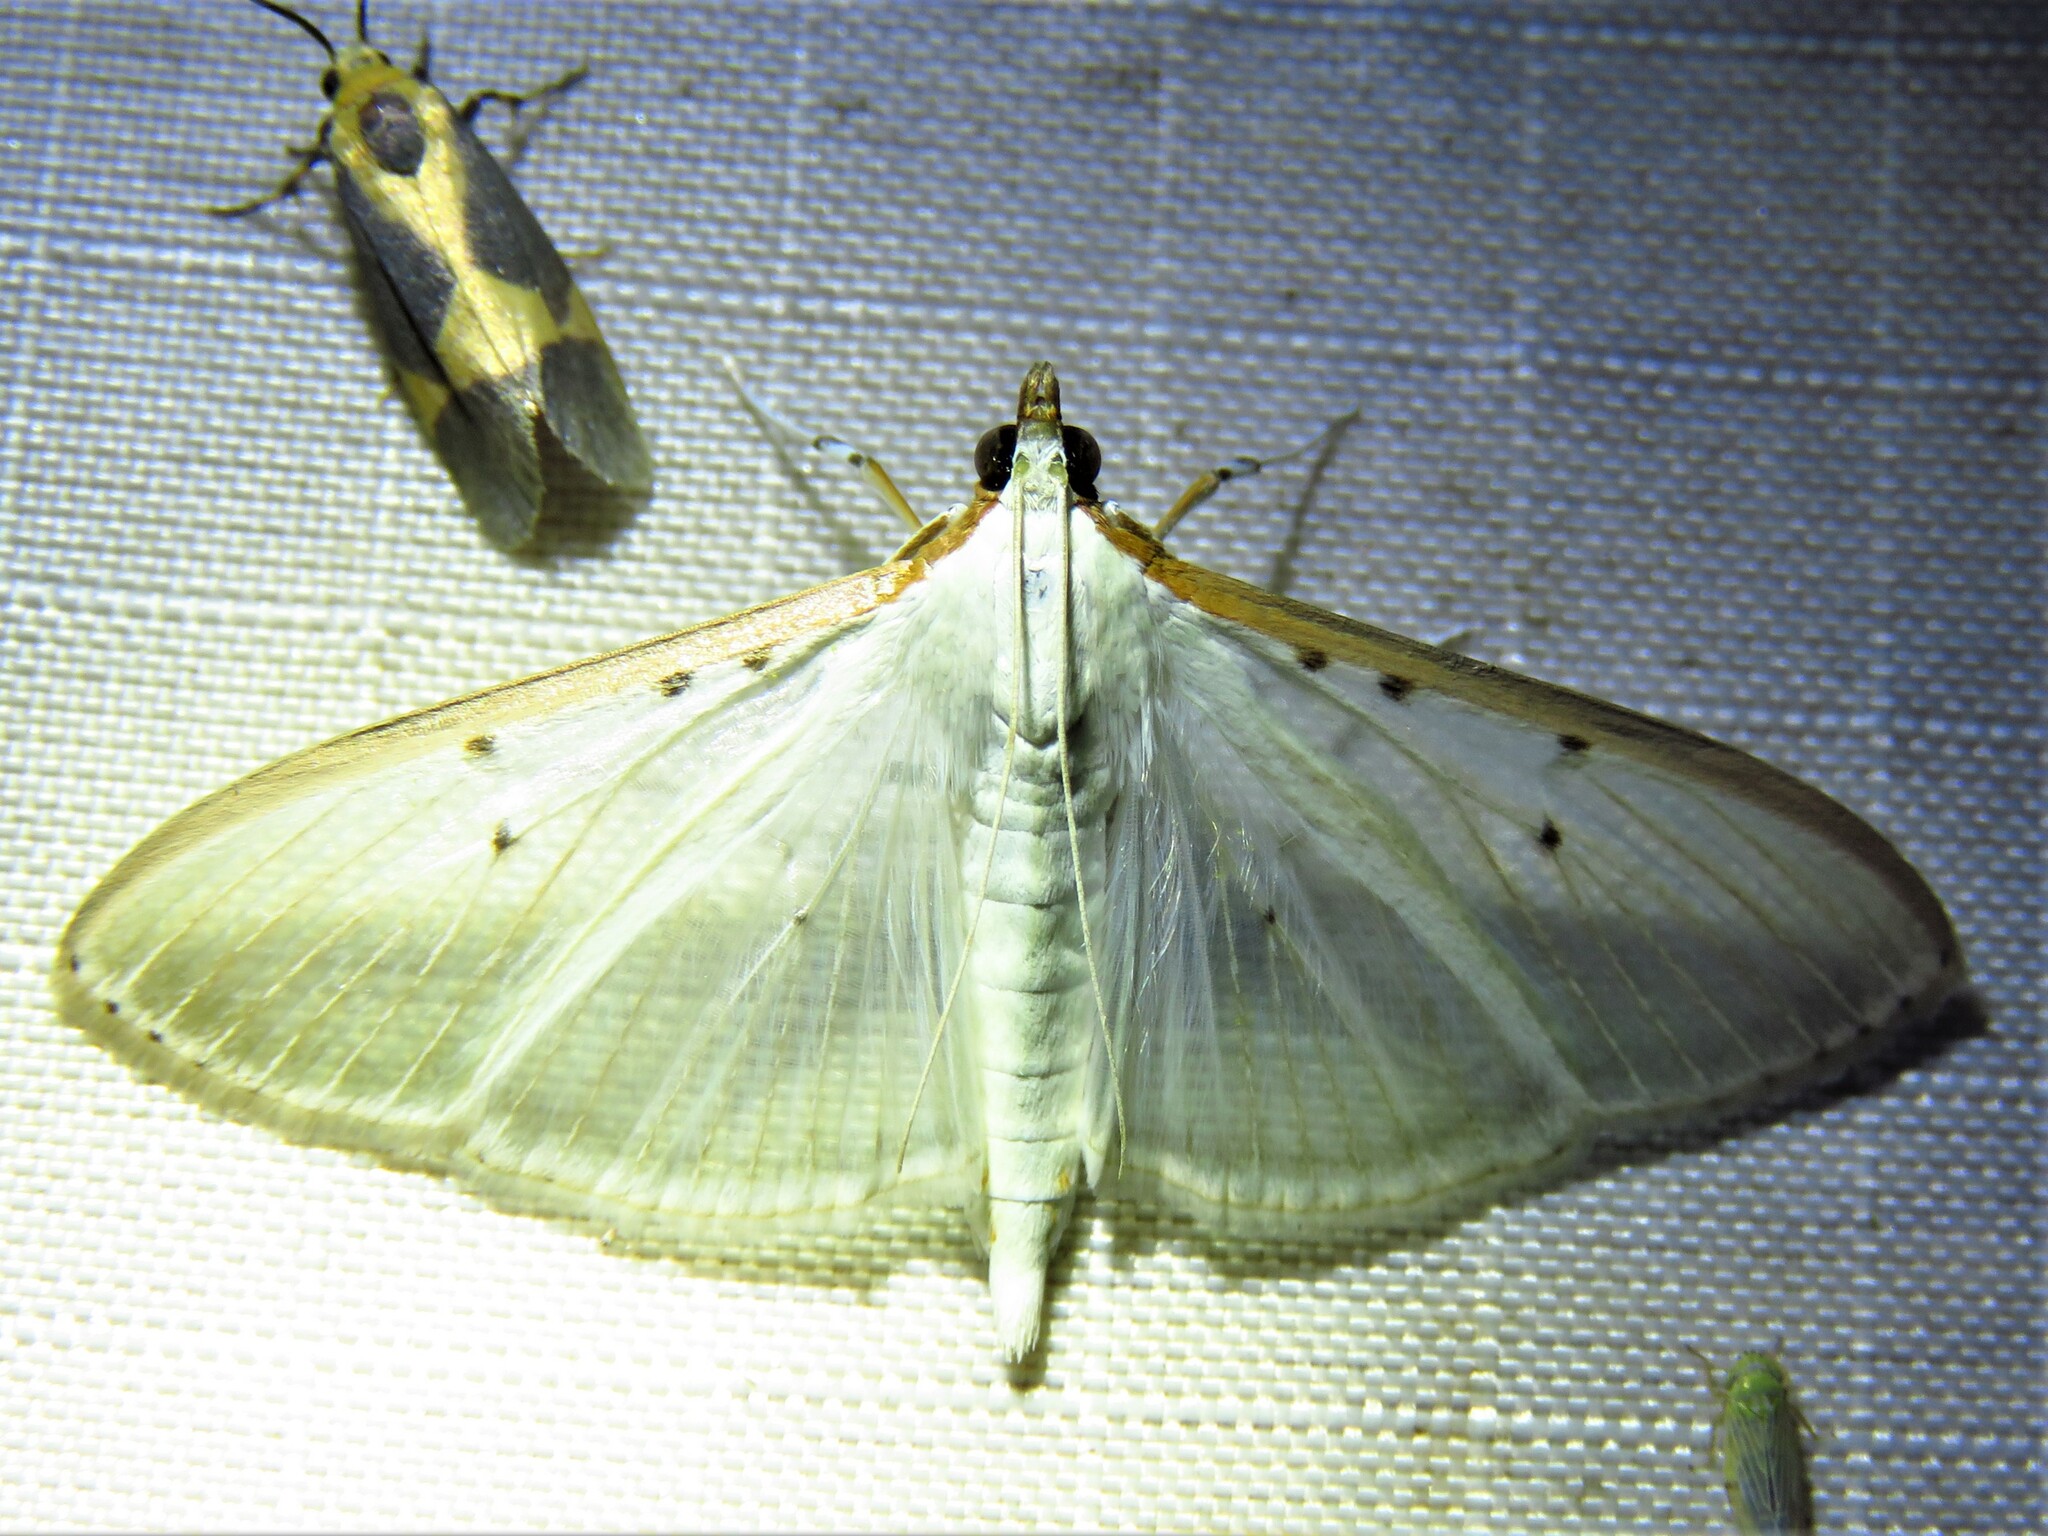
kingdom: Animalia
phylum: Arthropoda
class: Insecta
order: Lepidoptera
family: Crambidae
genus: Palpita
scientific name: Palpita quadristigmalis
